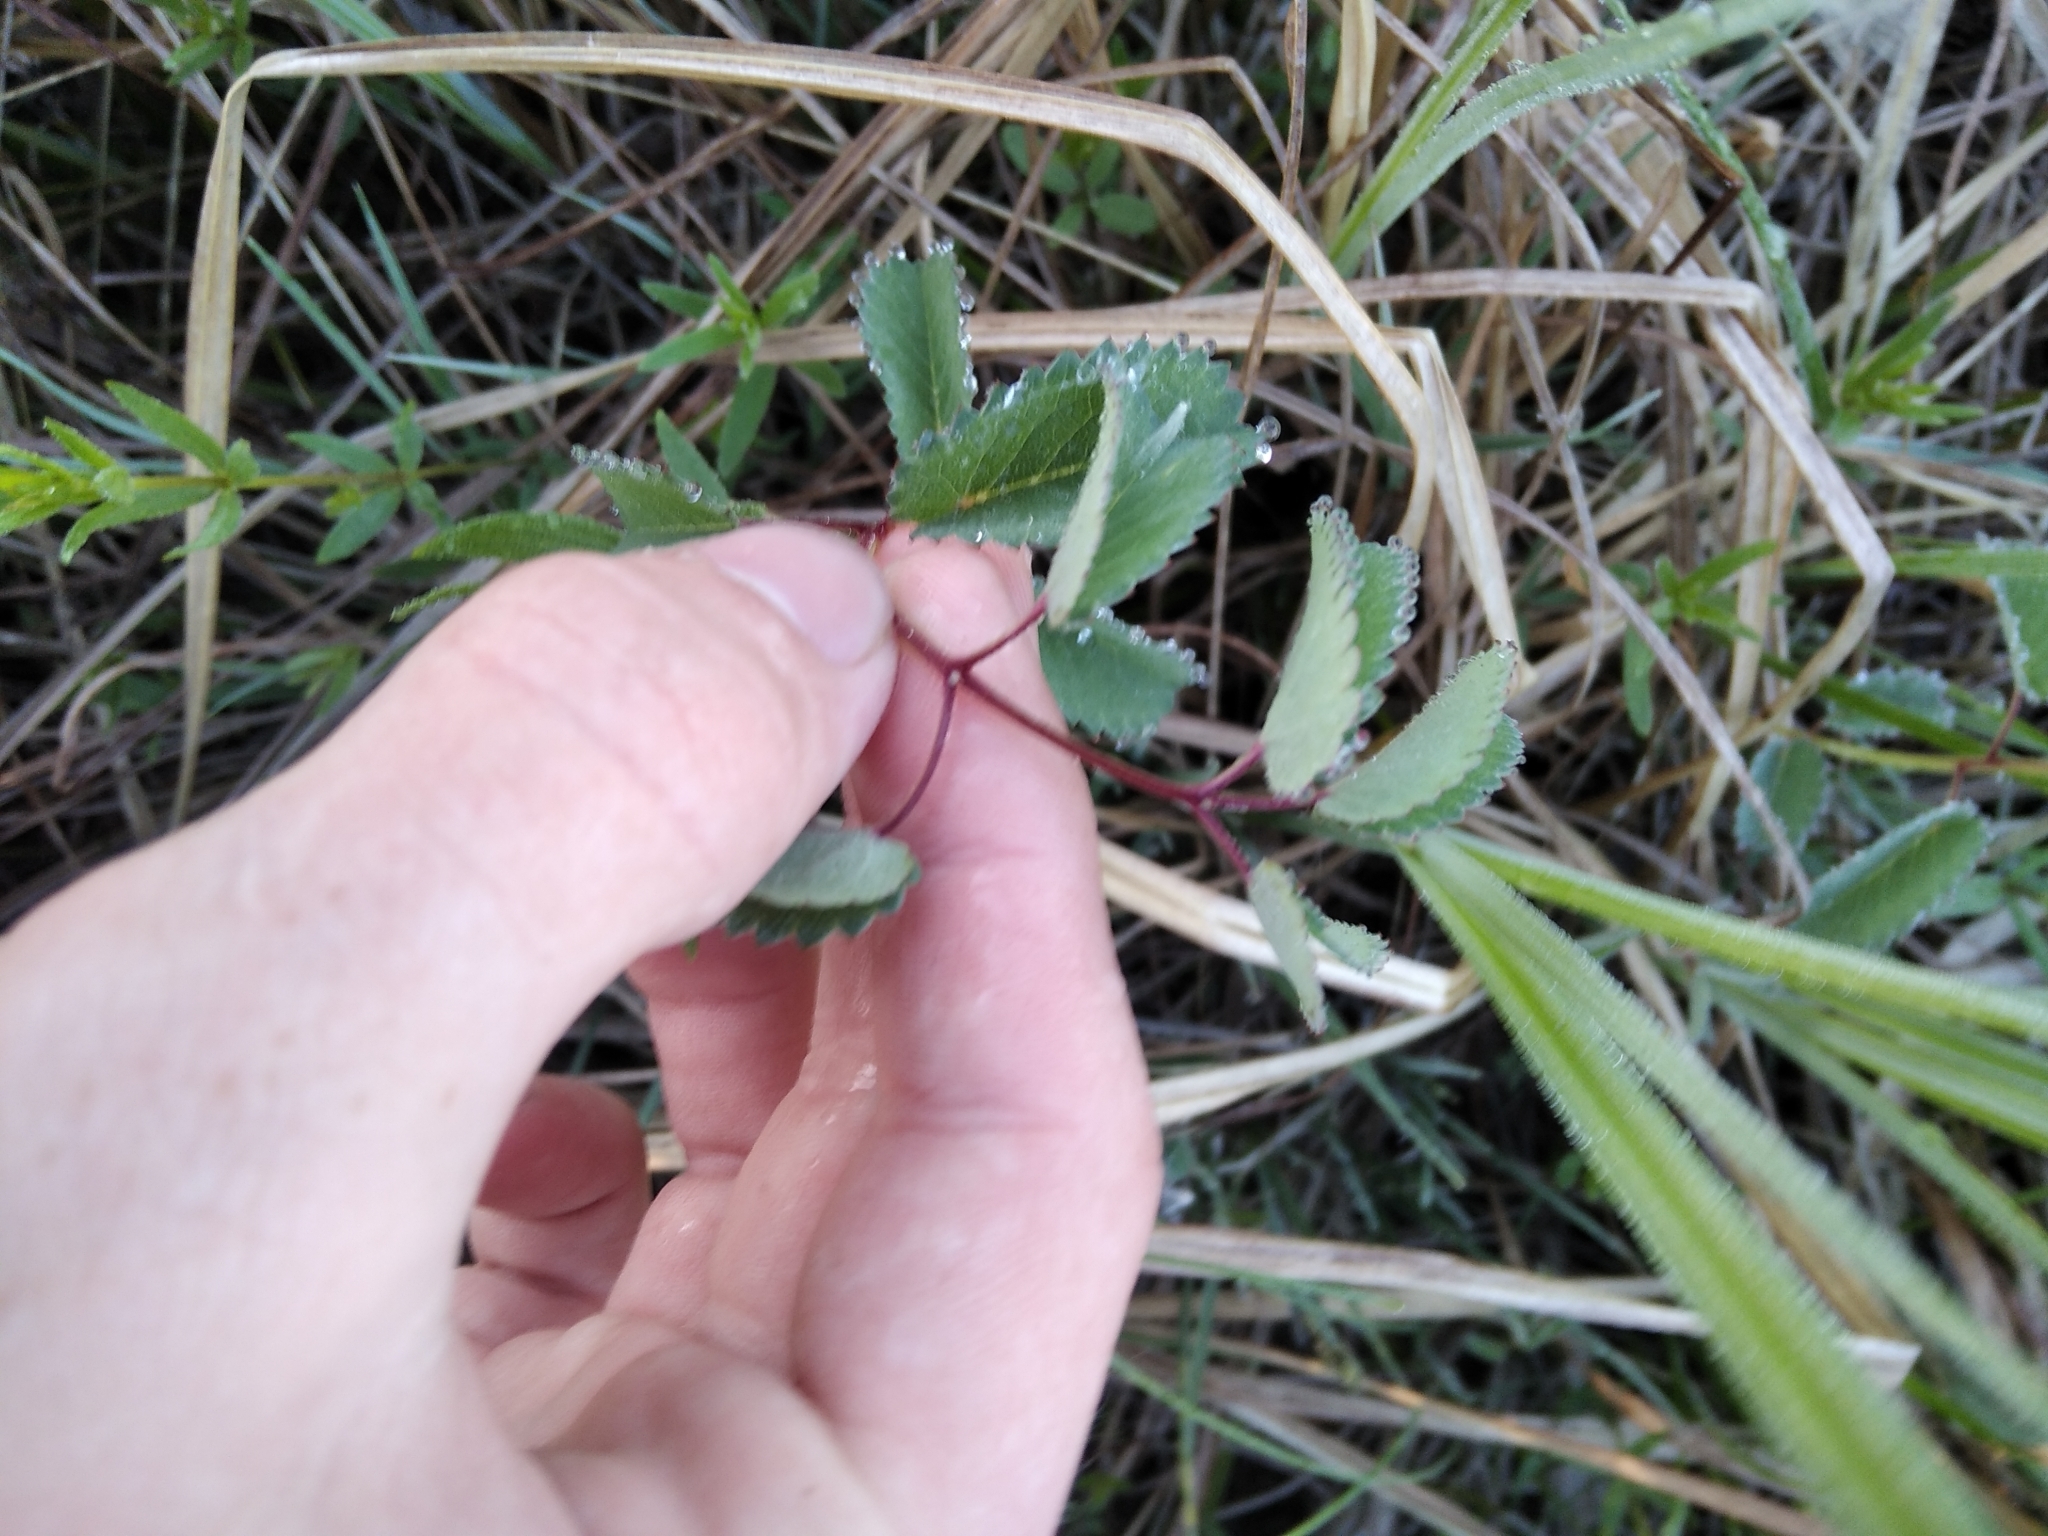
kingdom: Plantae
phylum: Tracheophyta
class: Magnoliopsida
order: Rosales
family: Rosaceae
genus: Sanguisorba
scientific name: Sanguisorba officinalis
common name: Great burnet
